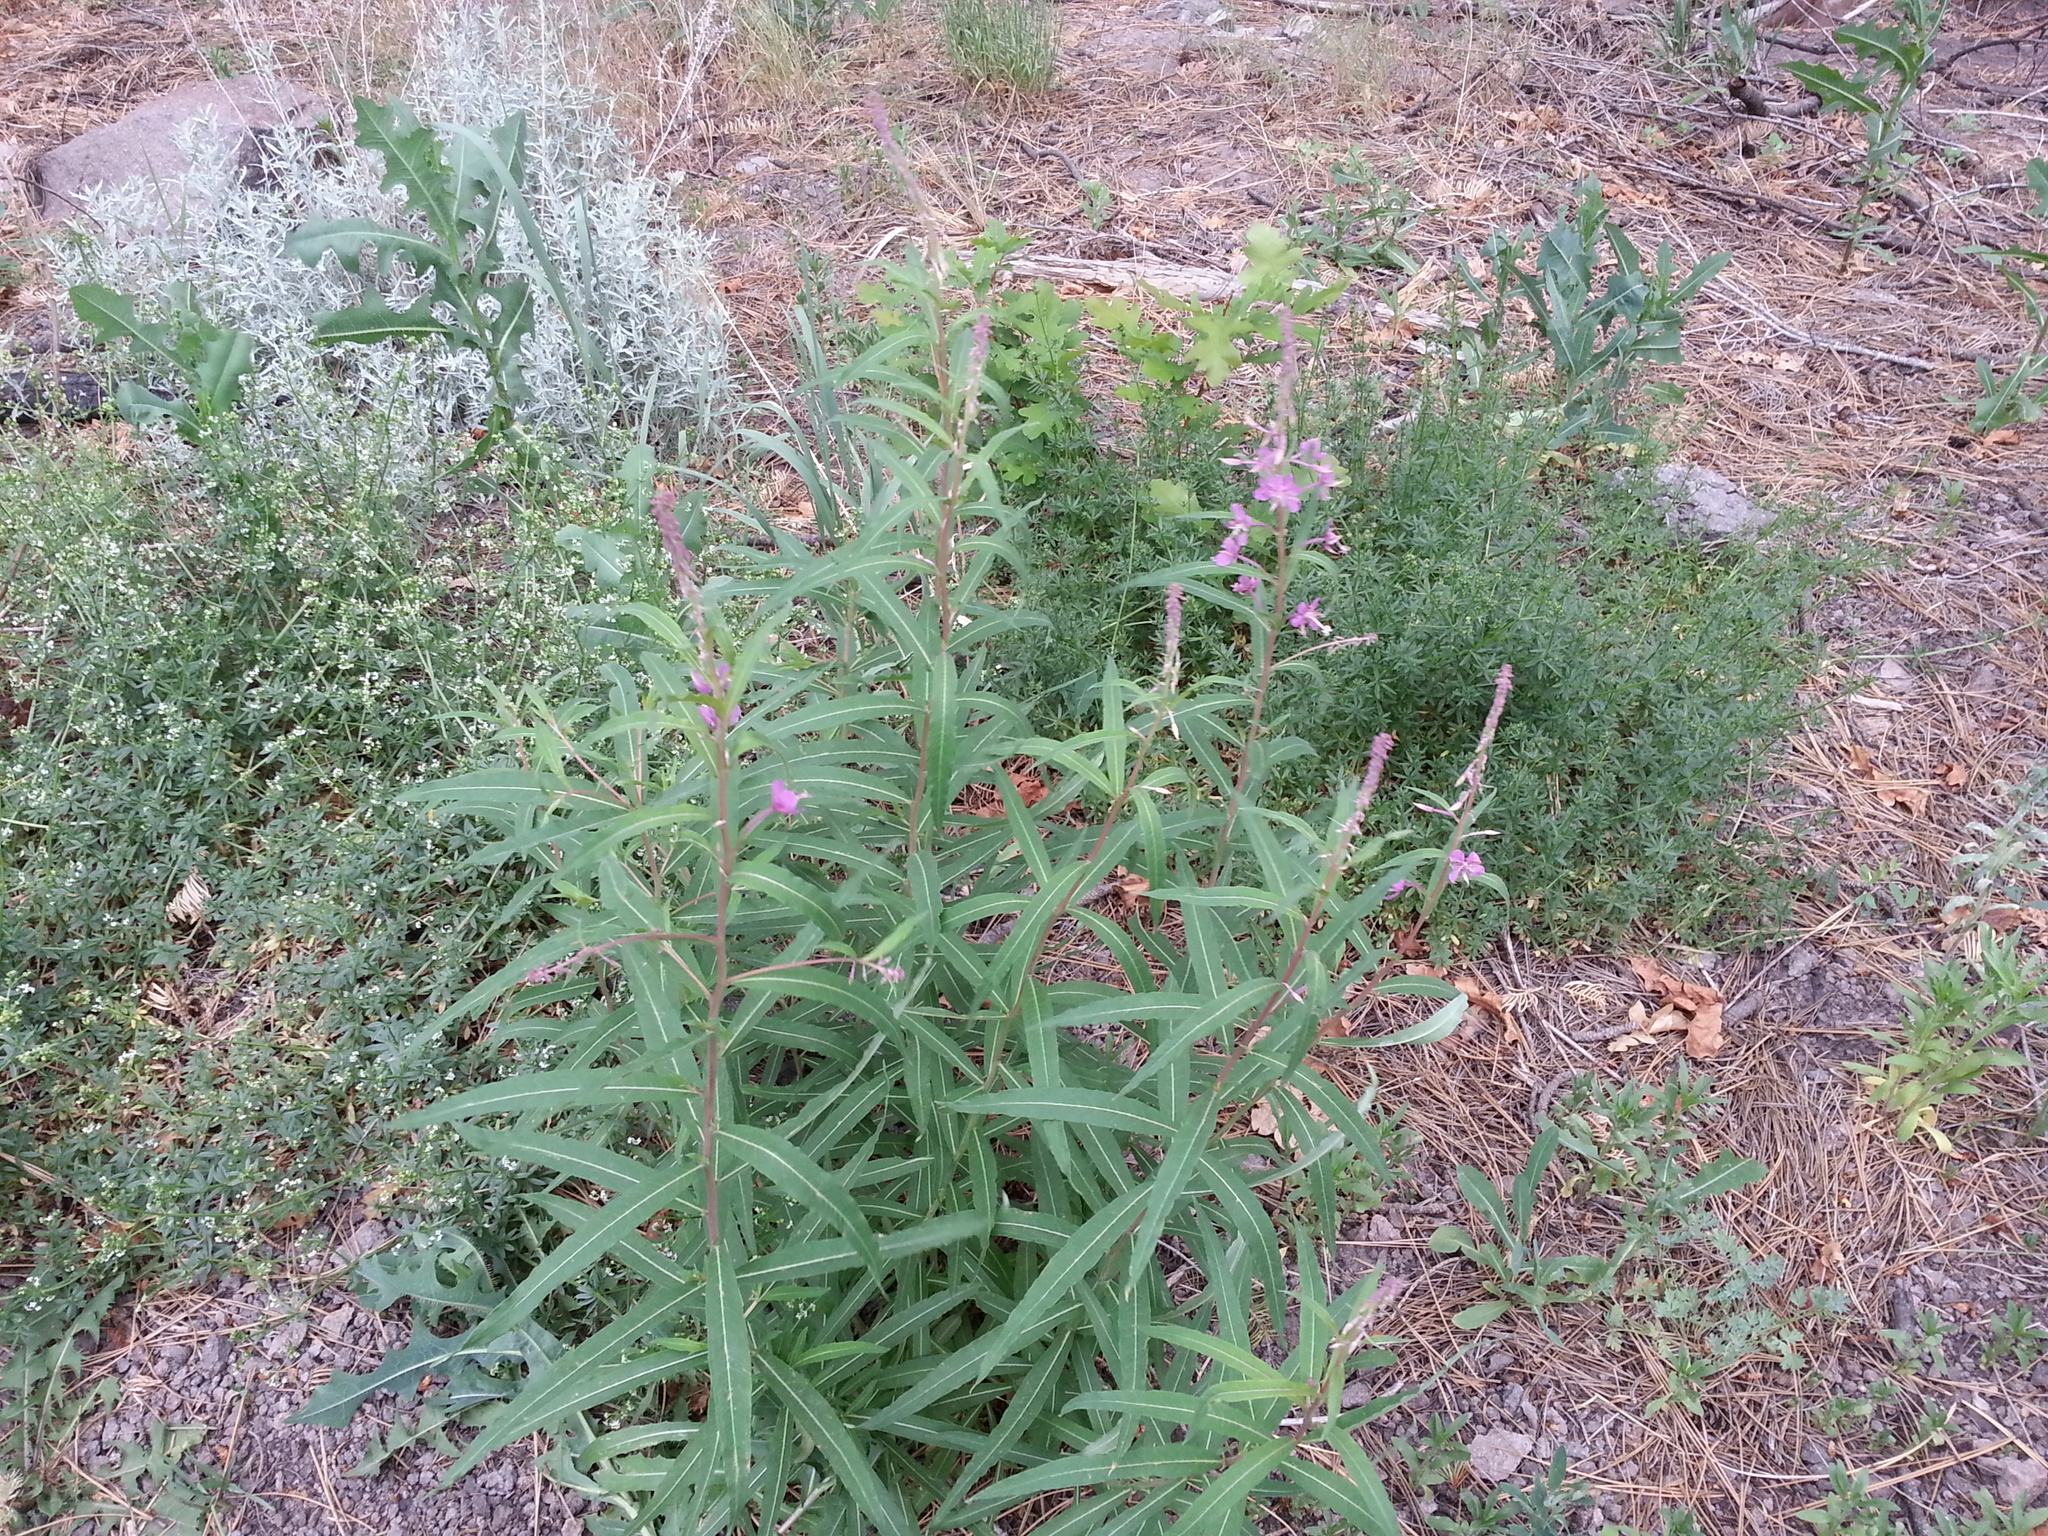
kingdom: Plantae
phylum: Tracheophyta
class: Magnoliopsida
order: Myrtales
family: Onagraceae
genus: Chamaenerion
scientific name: Chamaenerion angustifolium
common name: Fireweed
